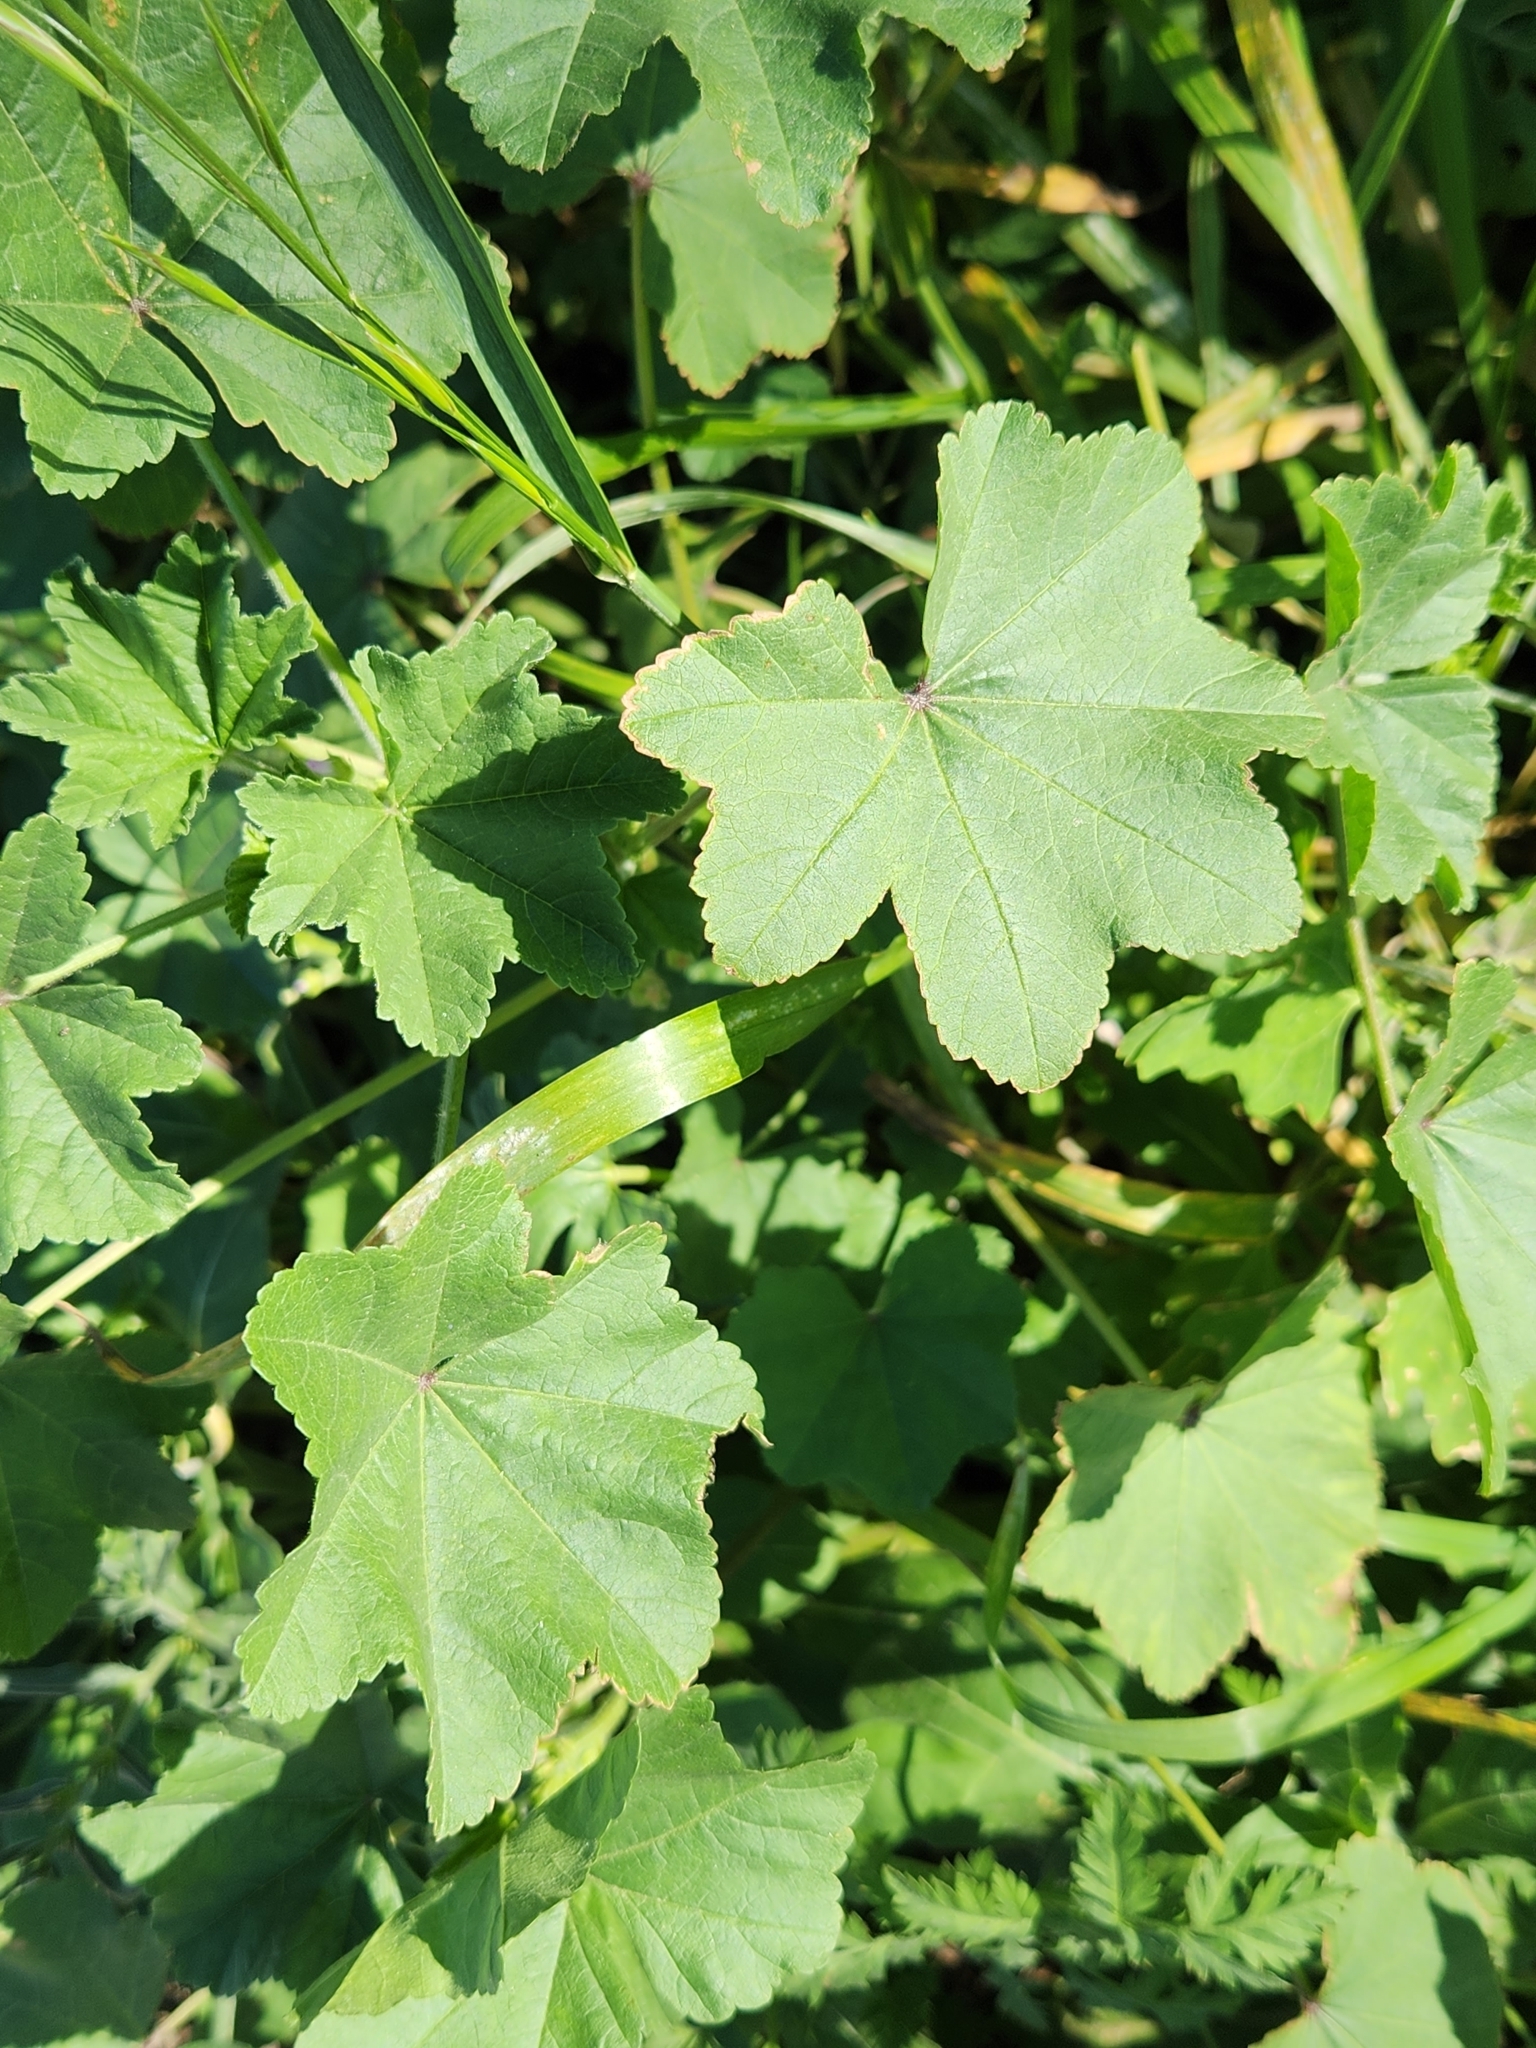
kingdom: Plantae
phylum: Tracheophyta
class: Magnoliopsida
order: Malvales
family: Malvaceae
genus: Malva
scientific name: Malva parviflora
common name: Least mallow
